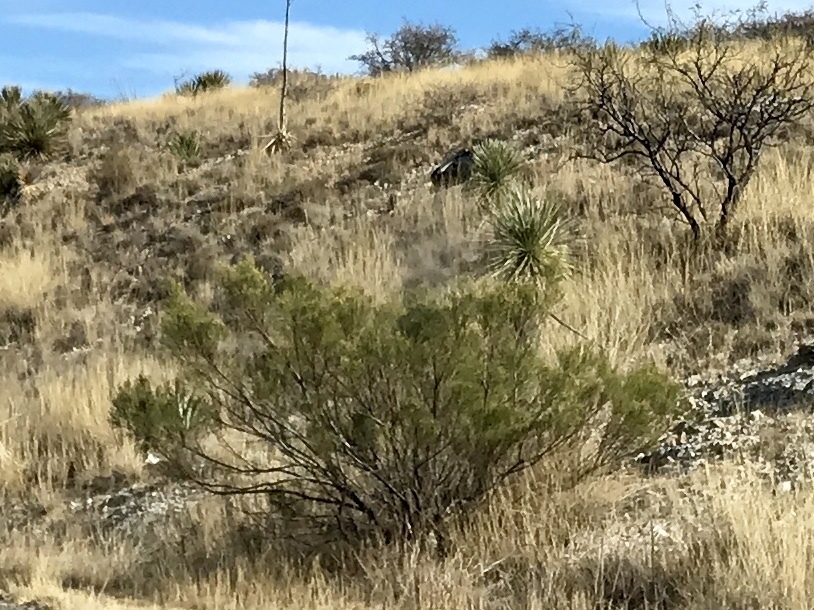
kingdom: Plantae
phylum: Tracheophyta
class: Magnoliopsida
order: Asterales
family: Asteraceae
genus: Baccharis
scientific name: Baccharis sarothroides
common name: Desert-broom
